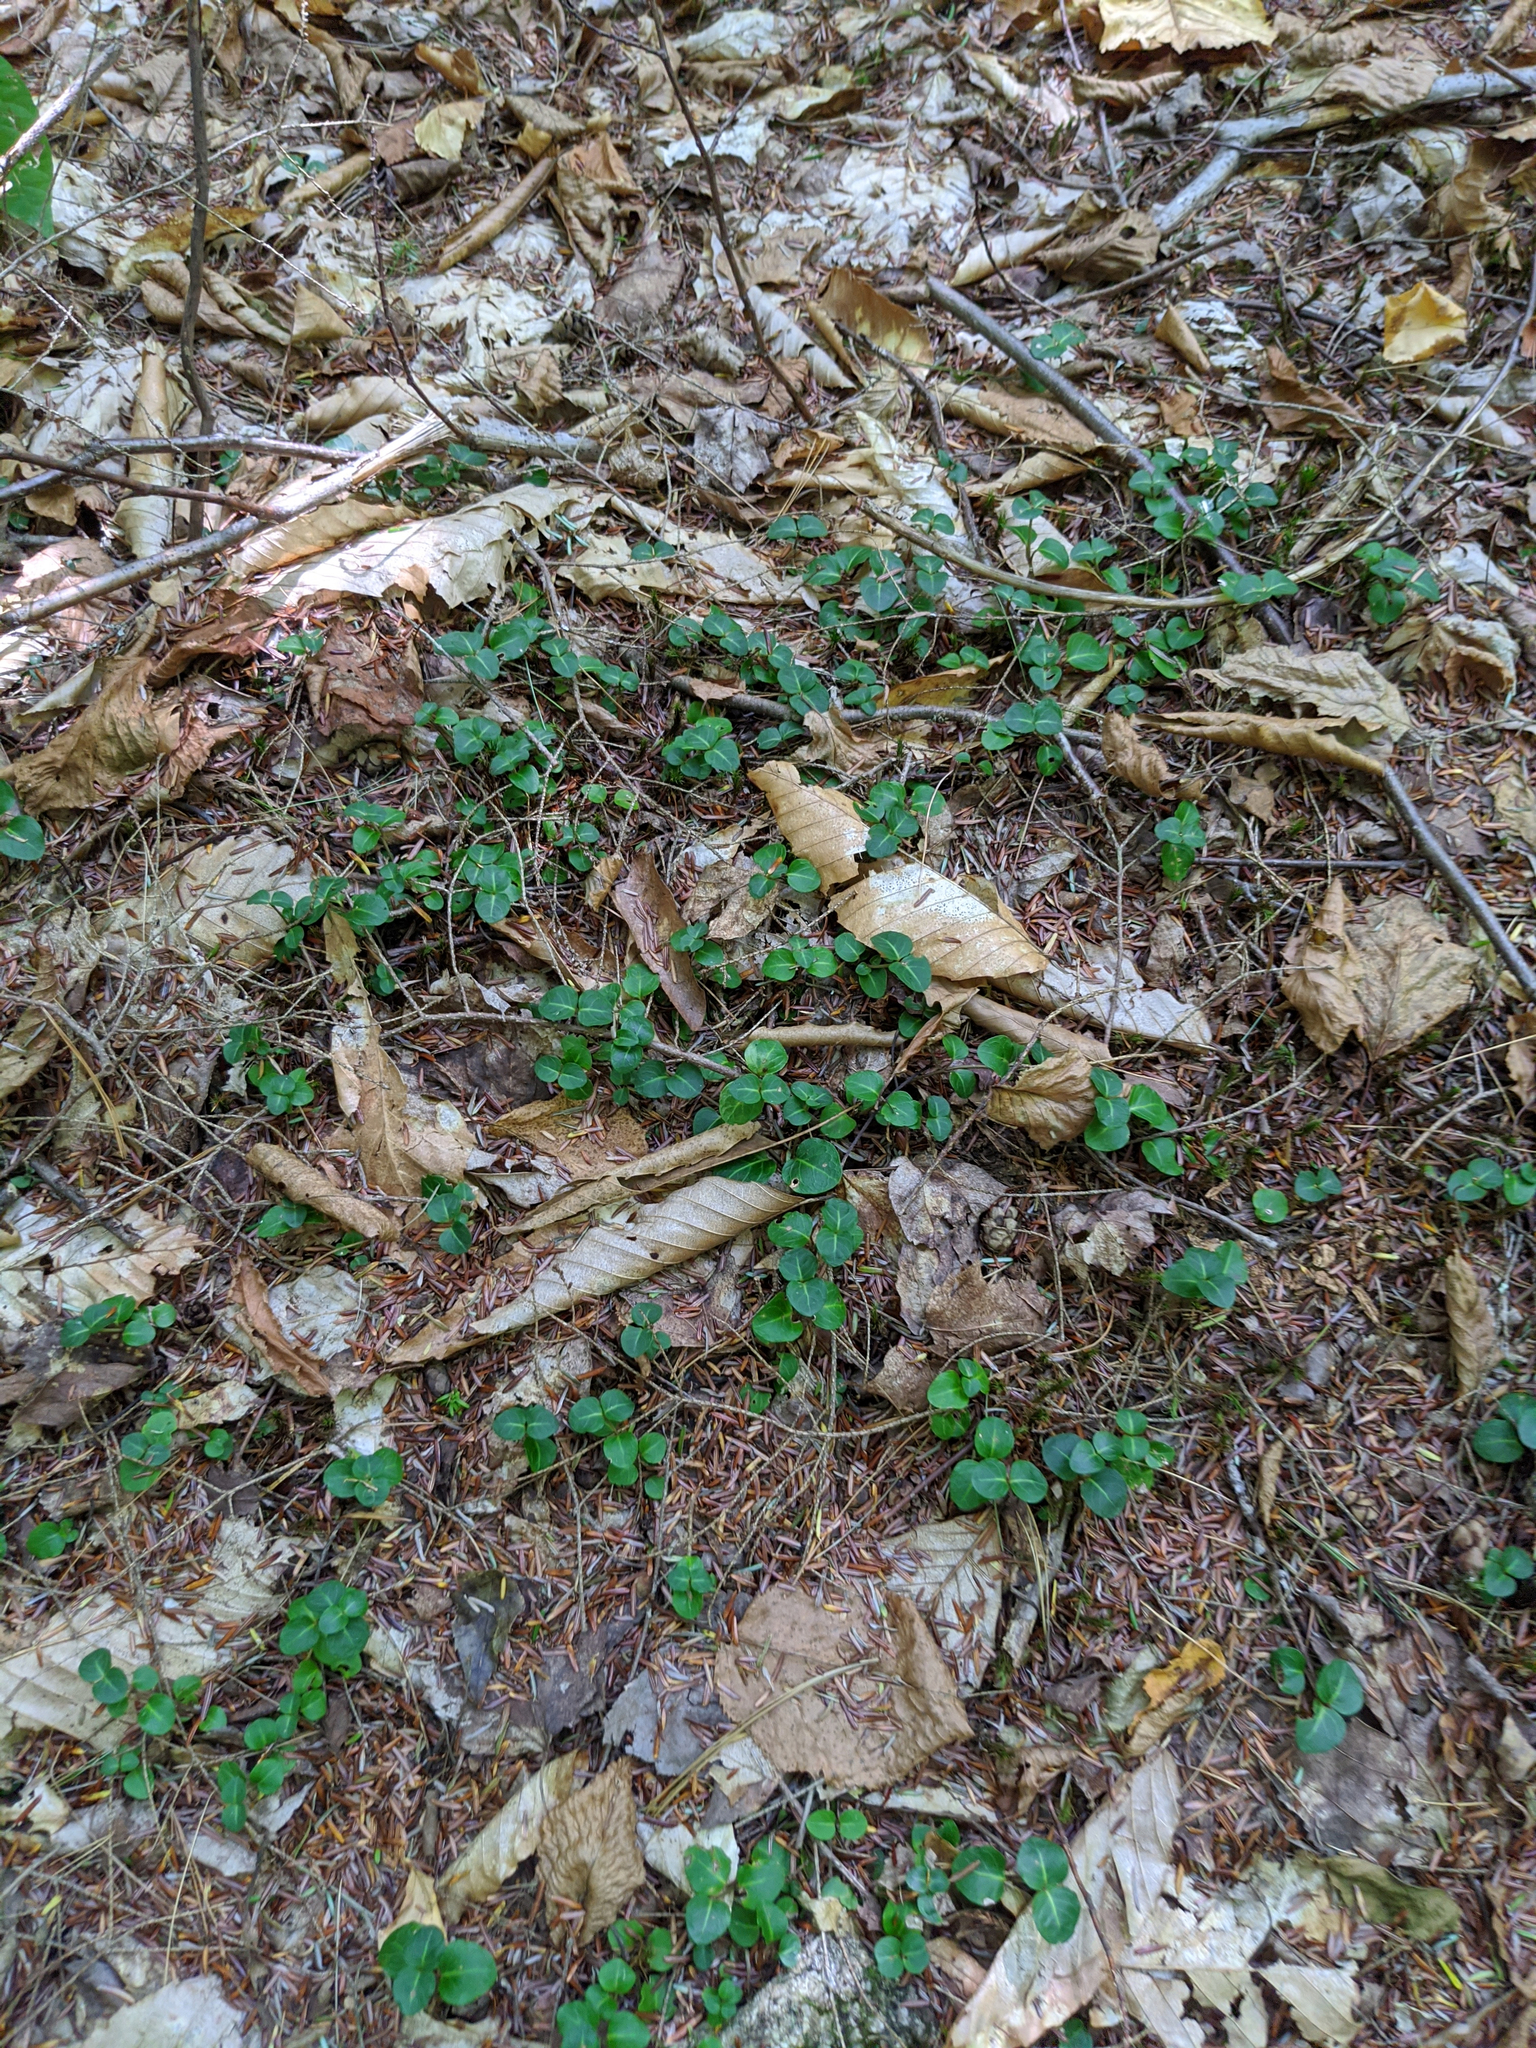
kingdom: Plantae
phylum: Tracheophyta
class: Magnoliopsida
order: Gentianales
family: Rubiaceae
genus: Mitchella
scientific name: Mitchella repens
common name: Partridge-berry
